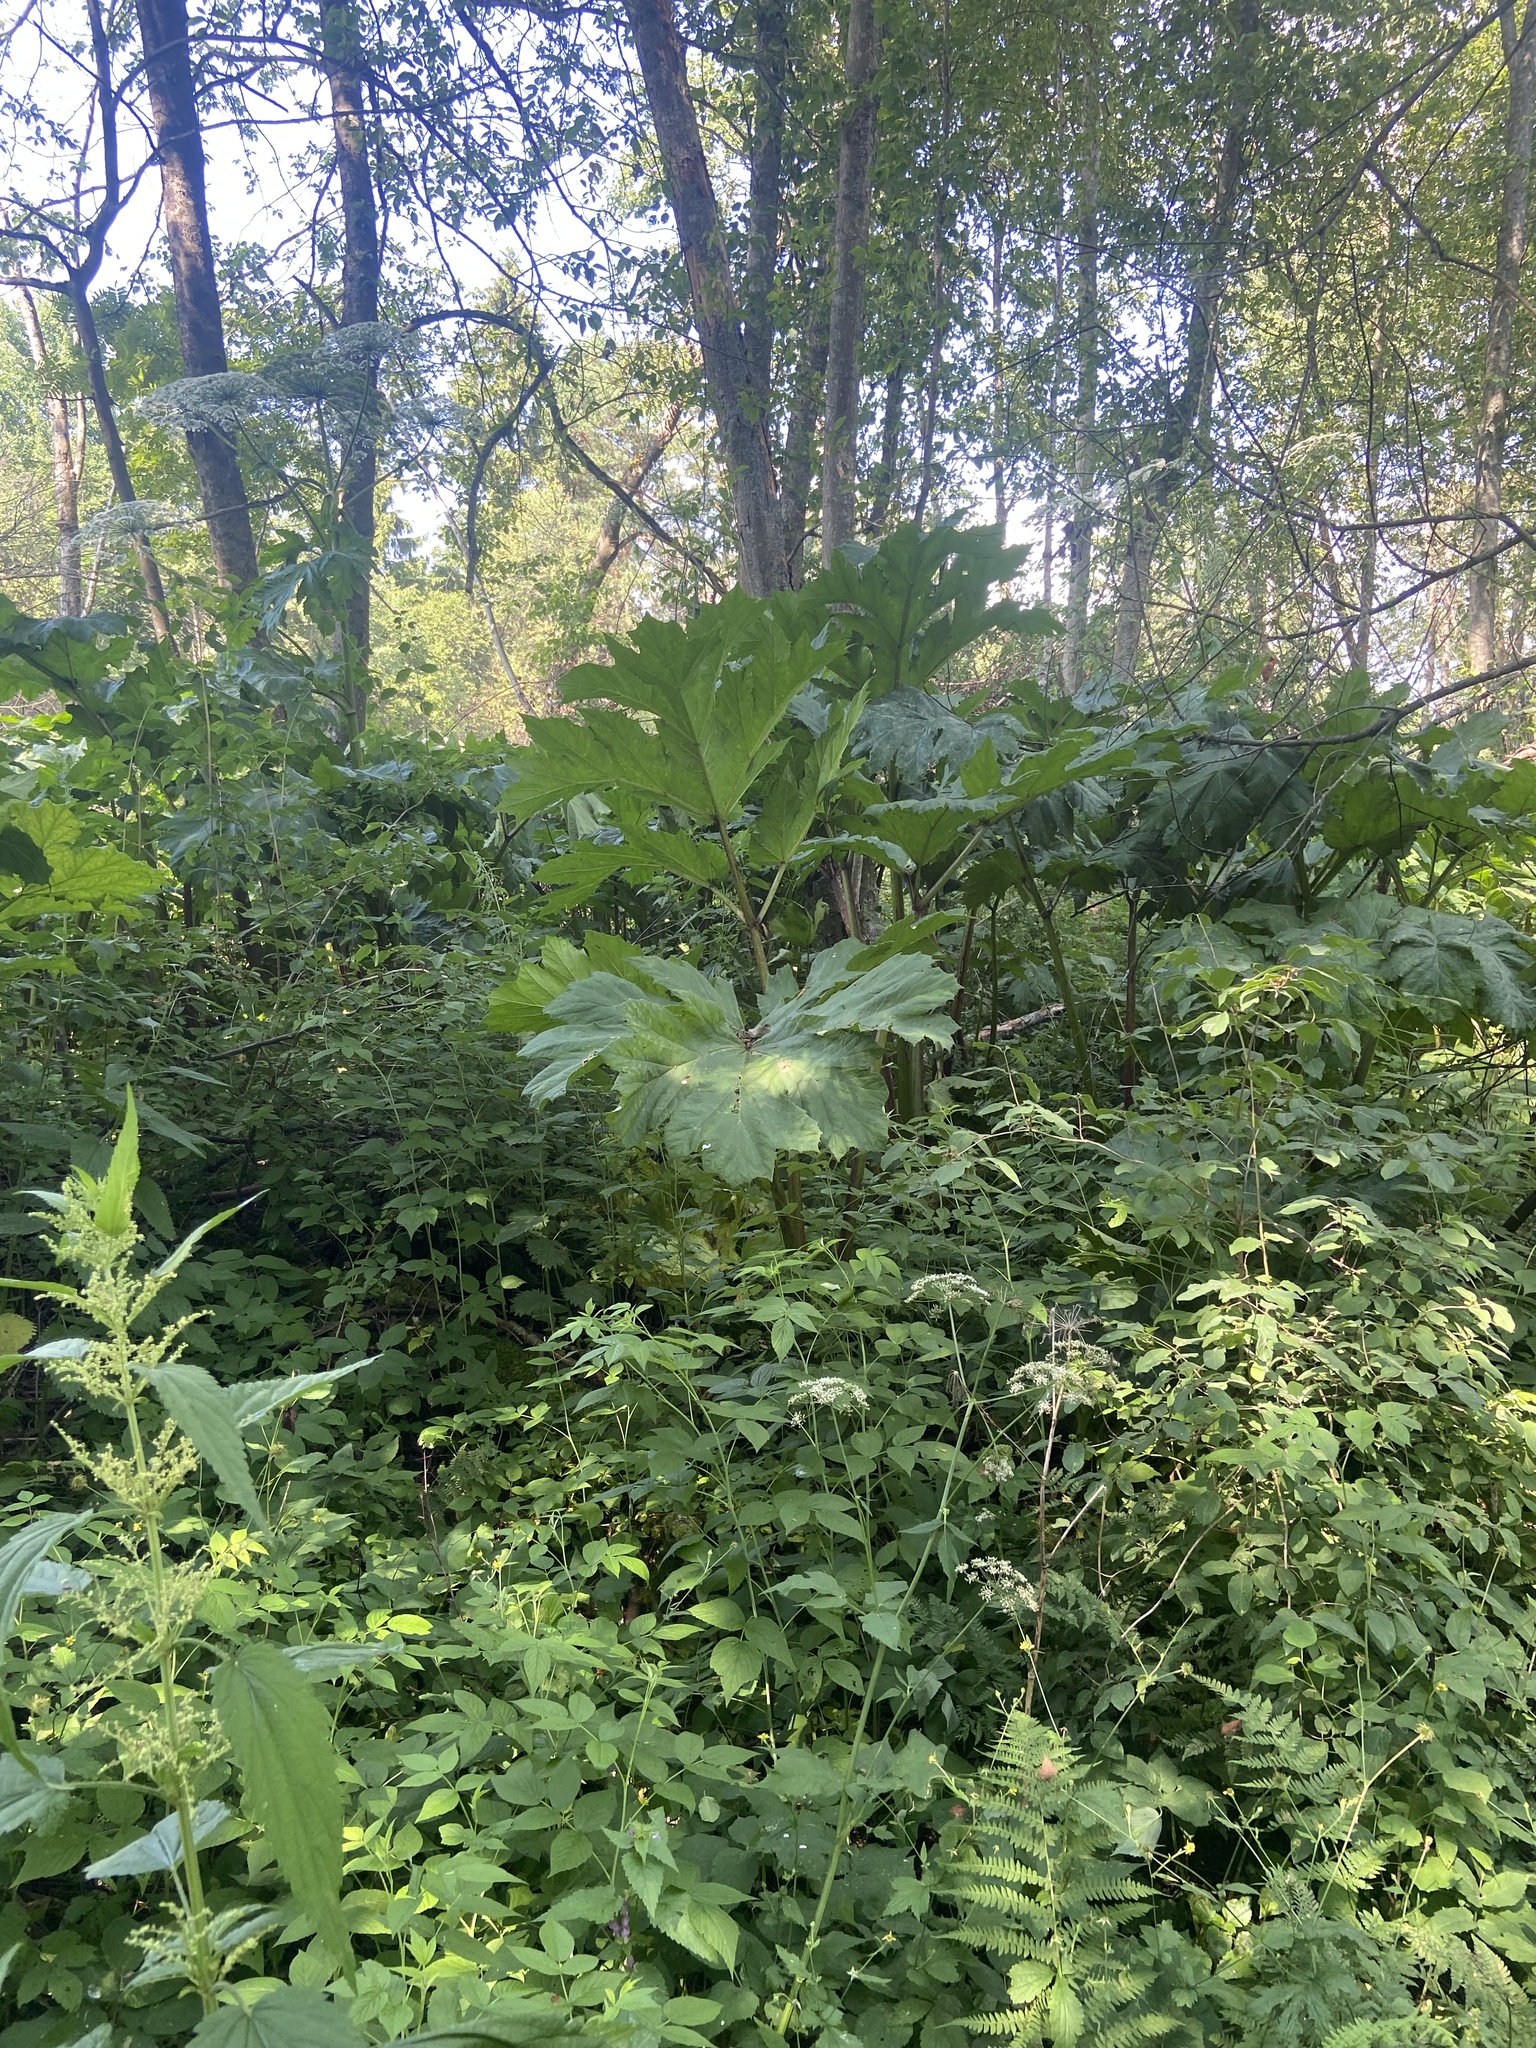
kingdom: Plantae
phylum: Tracheophyta
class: Magnoliopsida
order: Apiales
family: Apiaceae
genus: Heracleum
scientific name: Heracleum sosnowskyi
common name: Sosnowsky's hogweed
